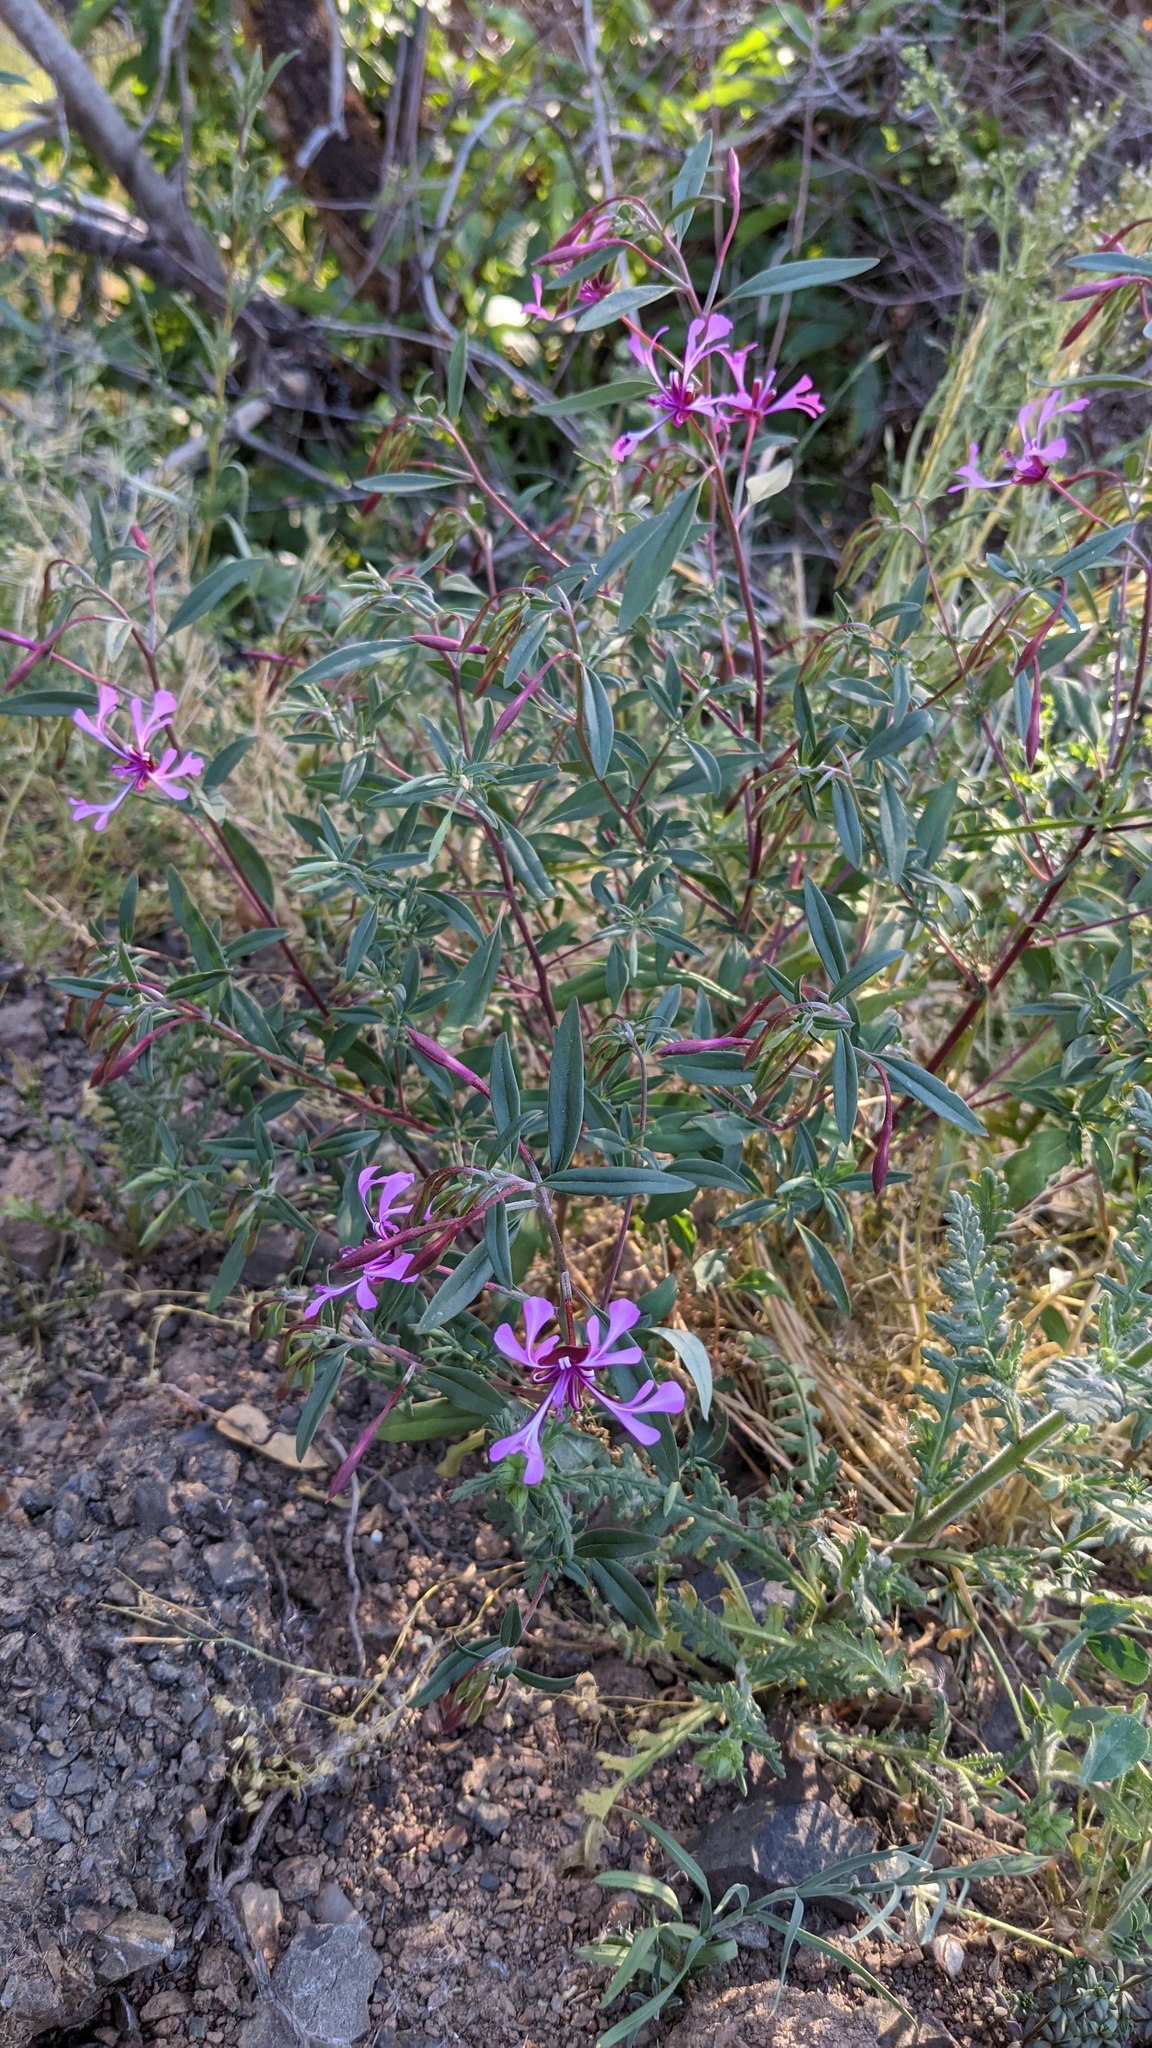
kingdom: Plantae
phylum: Tracheophyta
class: Magnoliopsida
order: Myrtales
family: Onagraceae
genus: Clarkia
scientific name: Clarkia concinna
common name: Red-ribbons
